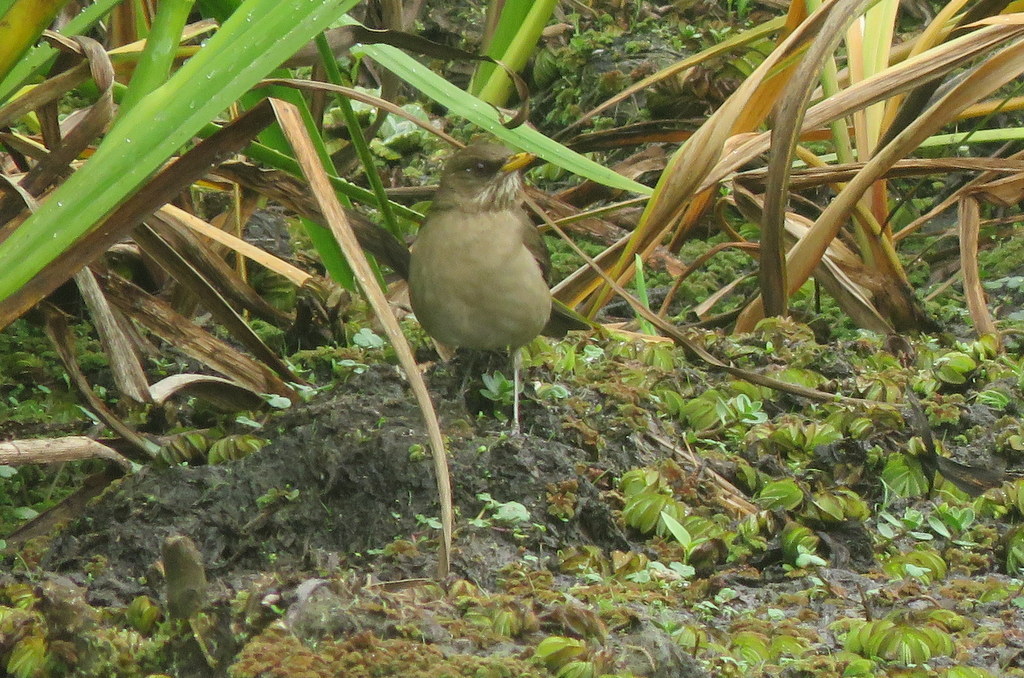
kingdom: Animalia
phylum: Chordata
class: Aves
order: Passeriformes
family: Turdidae
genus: Turdus
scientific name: Turdus amaurochalinus
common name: Creamy-bellied thrush
